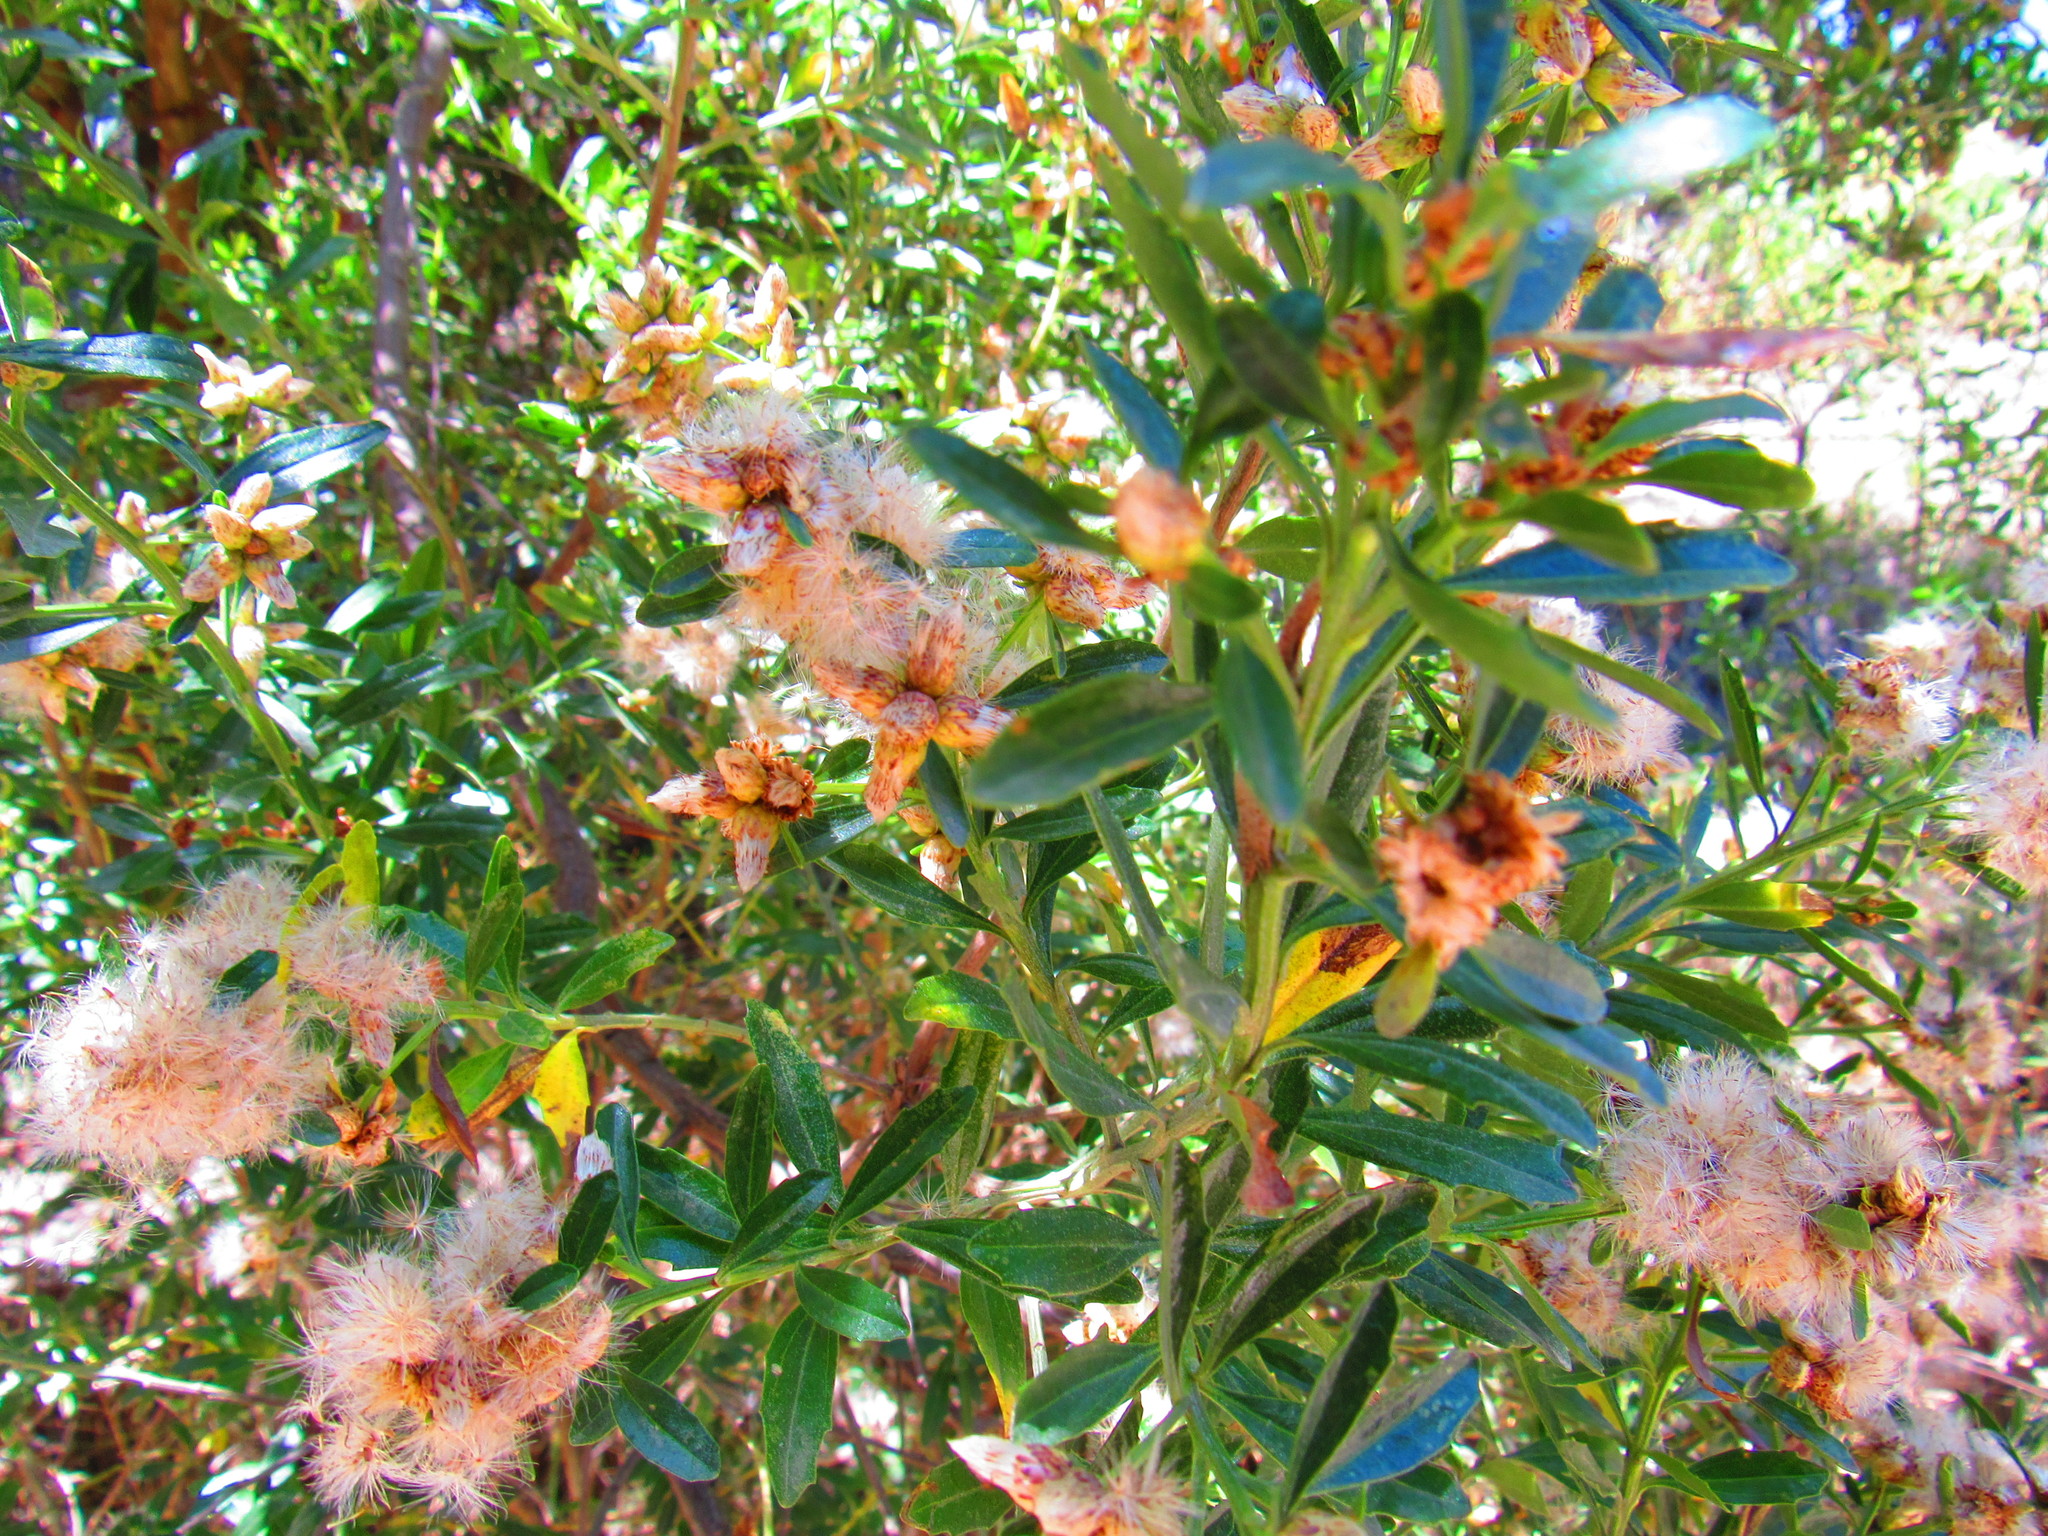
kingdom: Plantae
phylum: Tracheophyta
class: Magnoliopsida
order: Asterales
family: Asteraceae
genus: Baccharis
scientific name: Baccharis heterophylla
